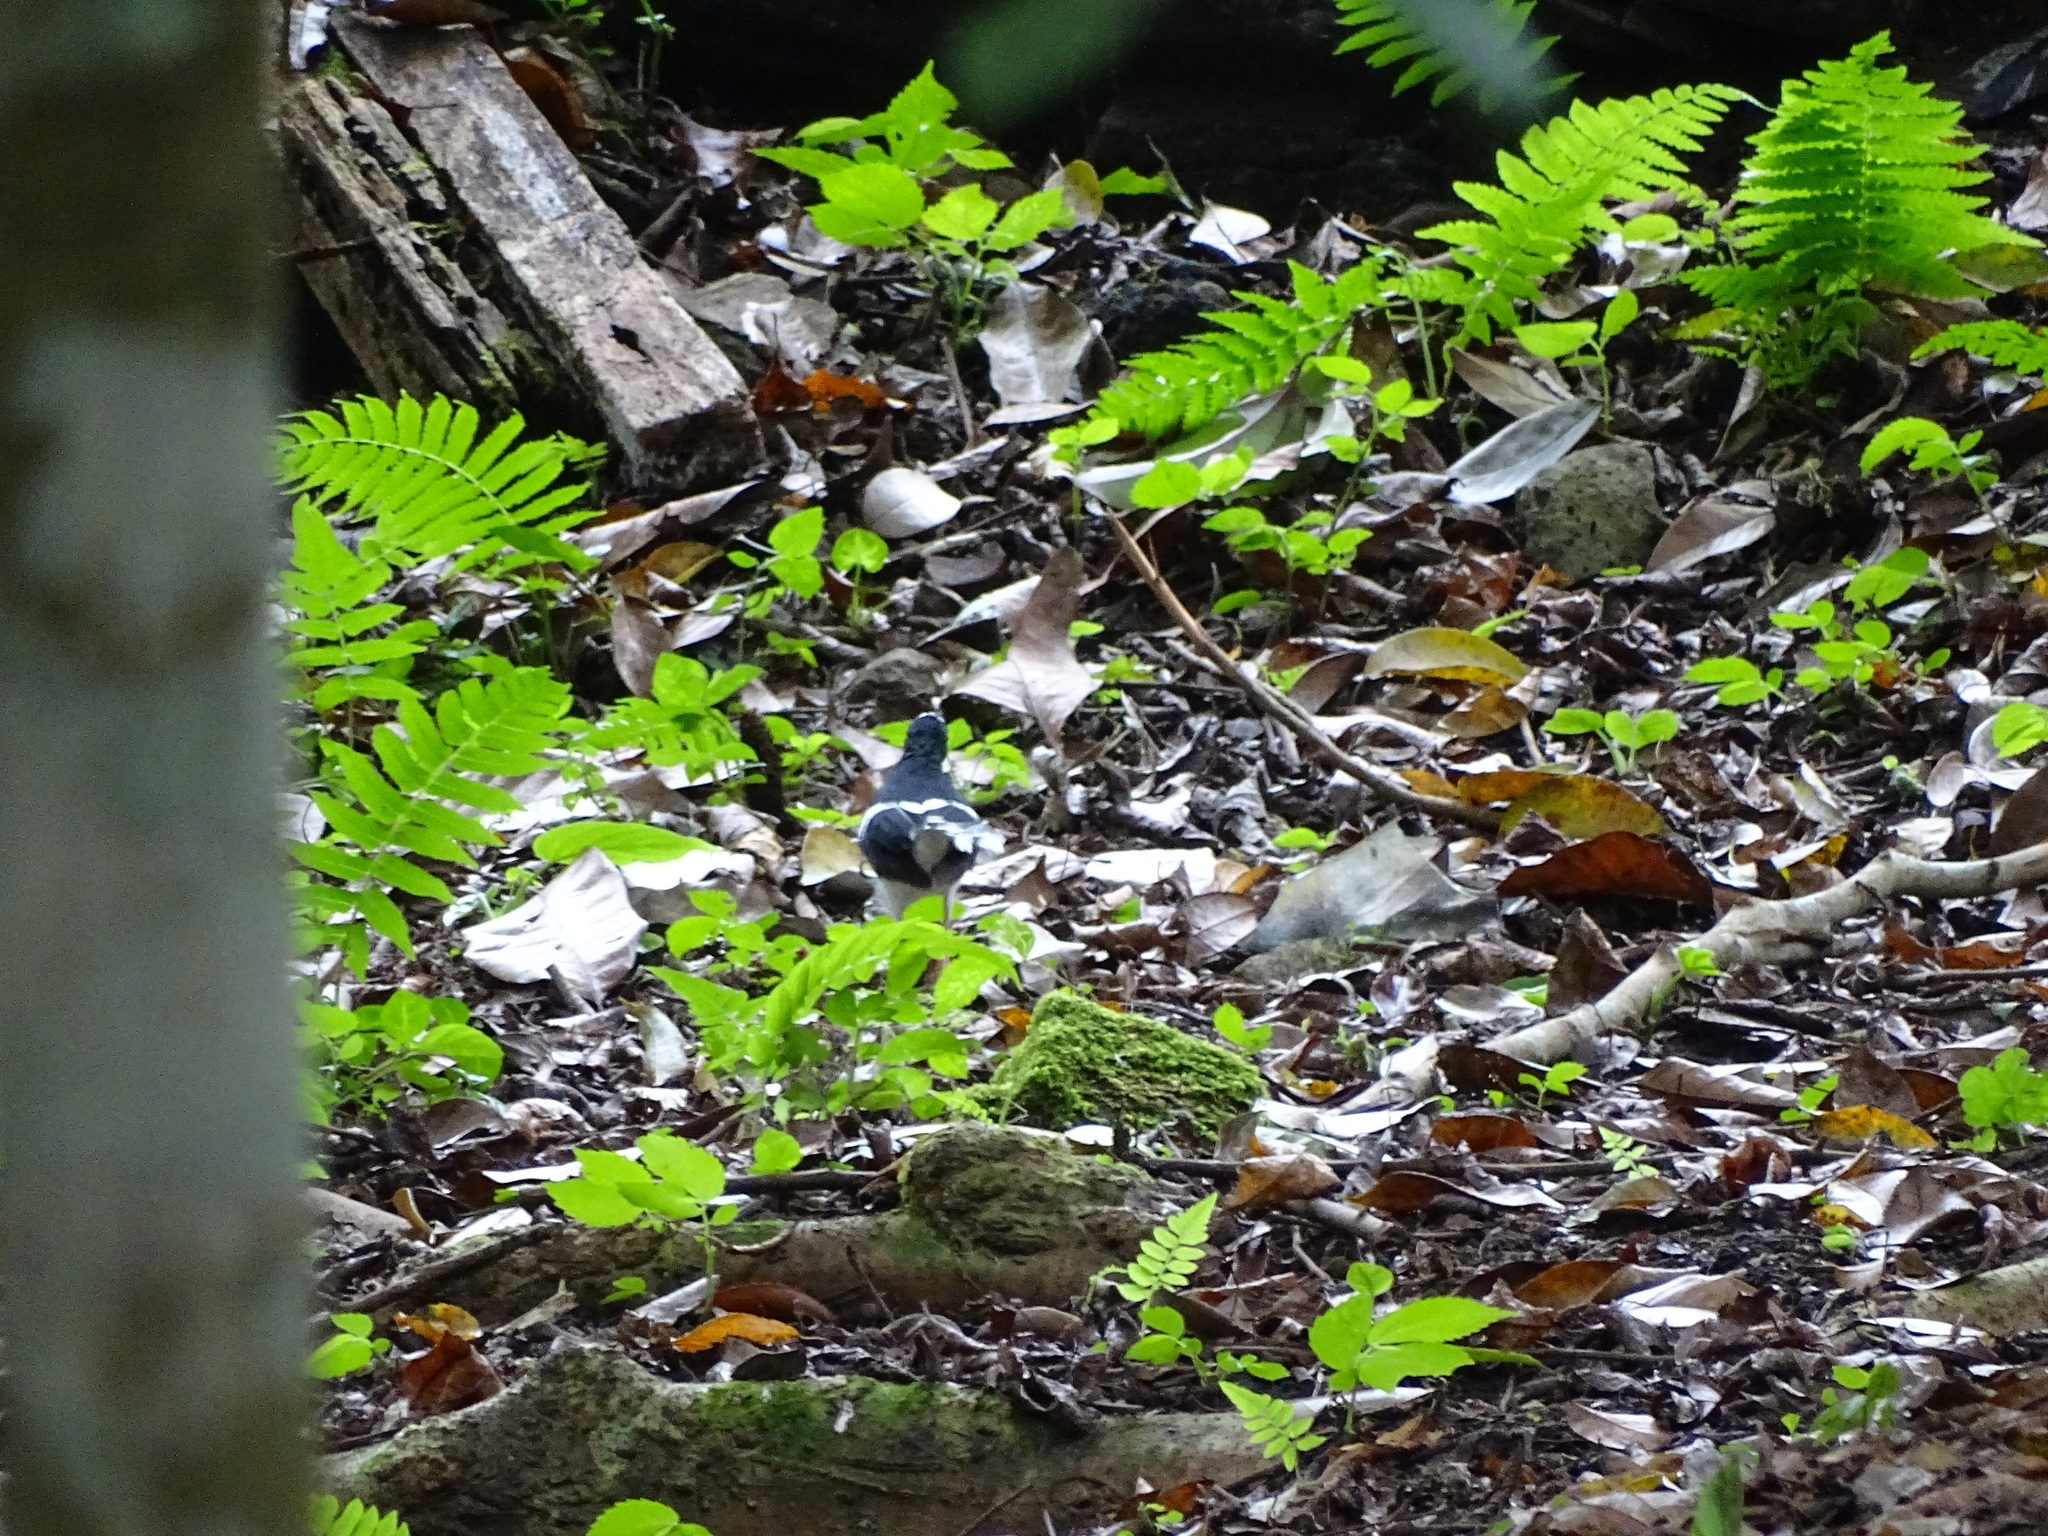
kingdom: Animalia
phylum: Chordata
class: Aves
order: Passeriformes
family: Muscicapidae
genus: Enicurus
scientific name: Enicurus leschenaulti
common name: White-crowned forktail
